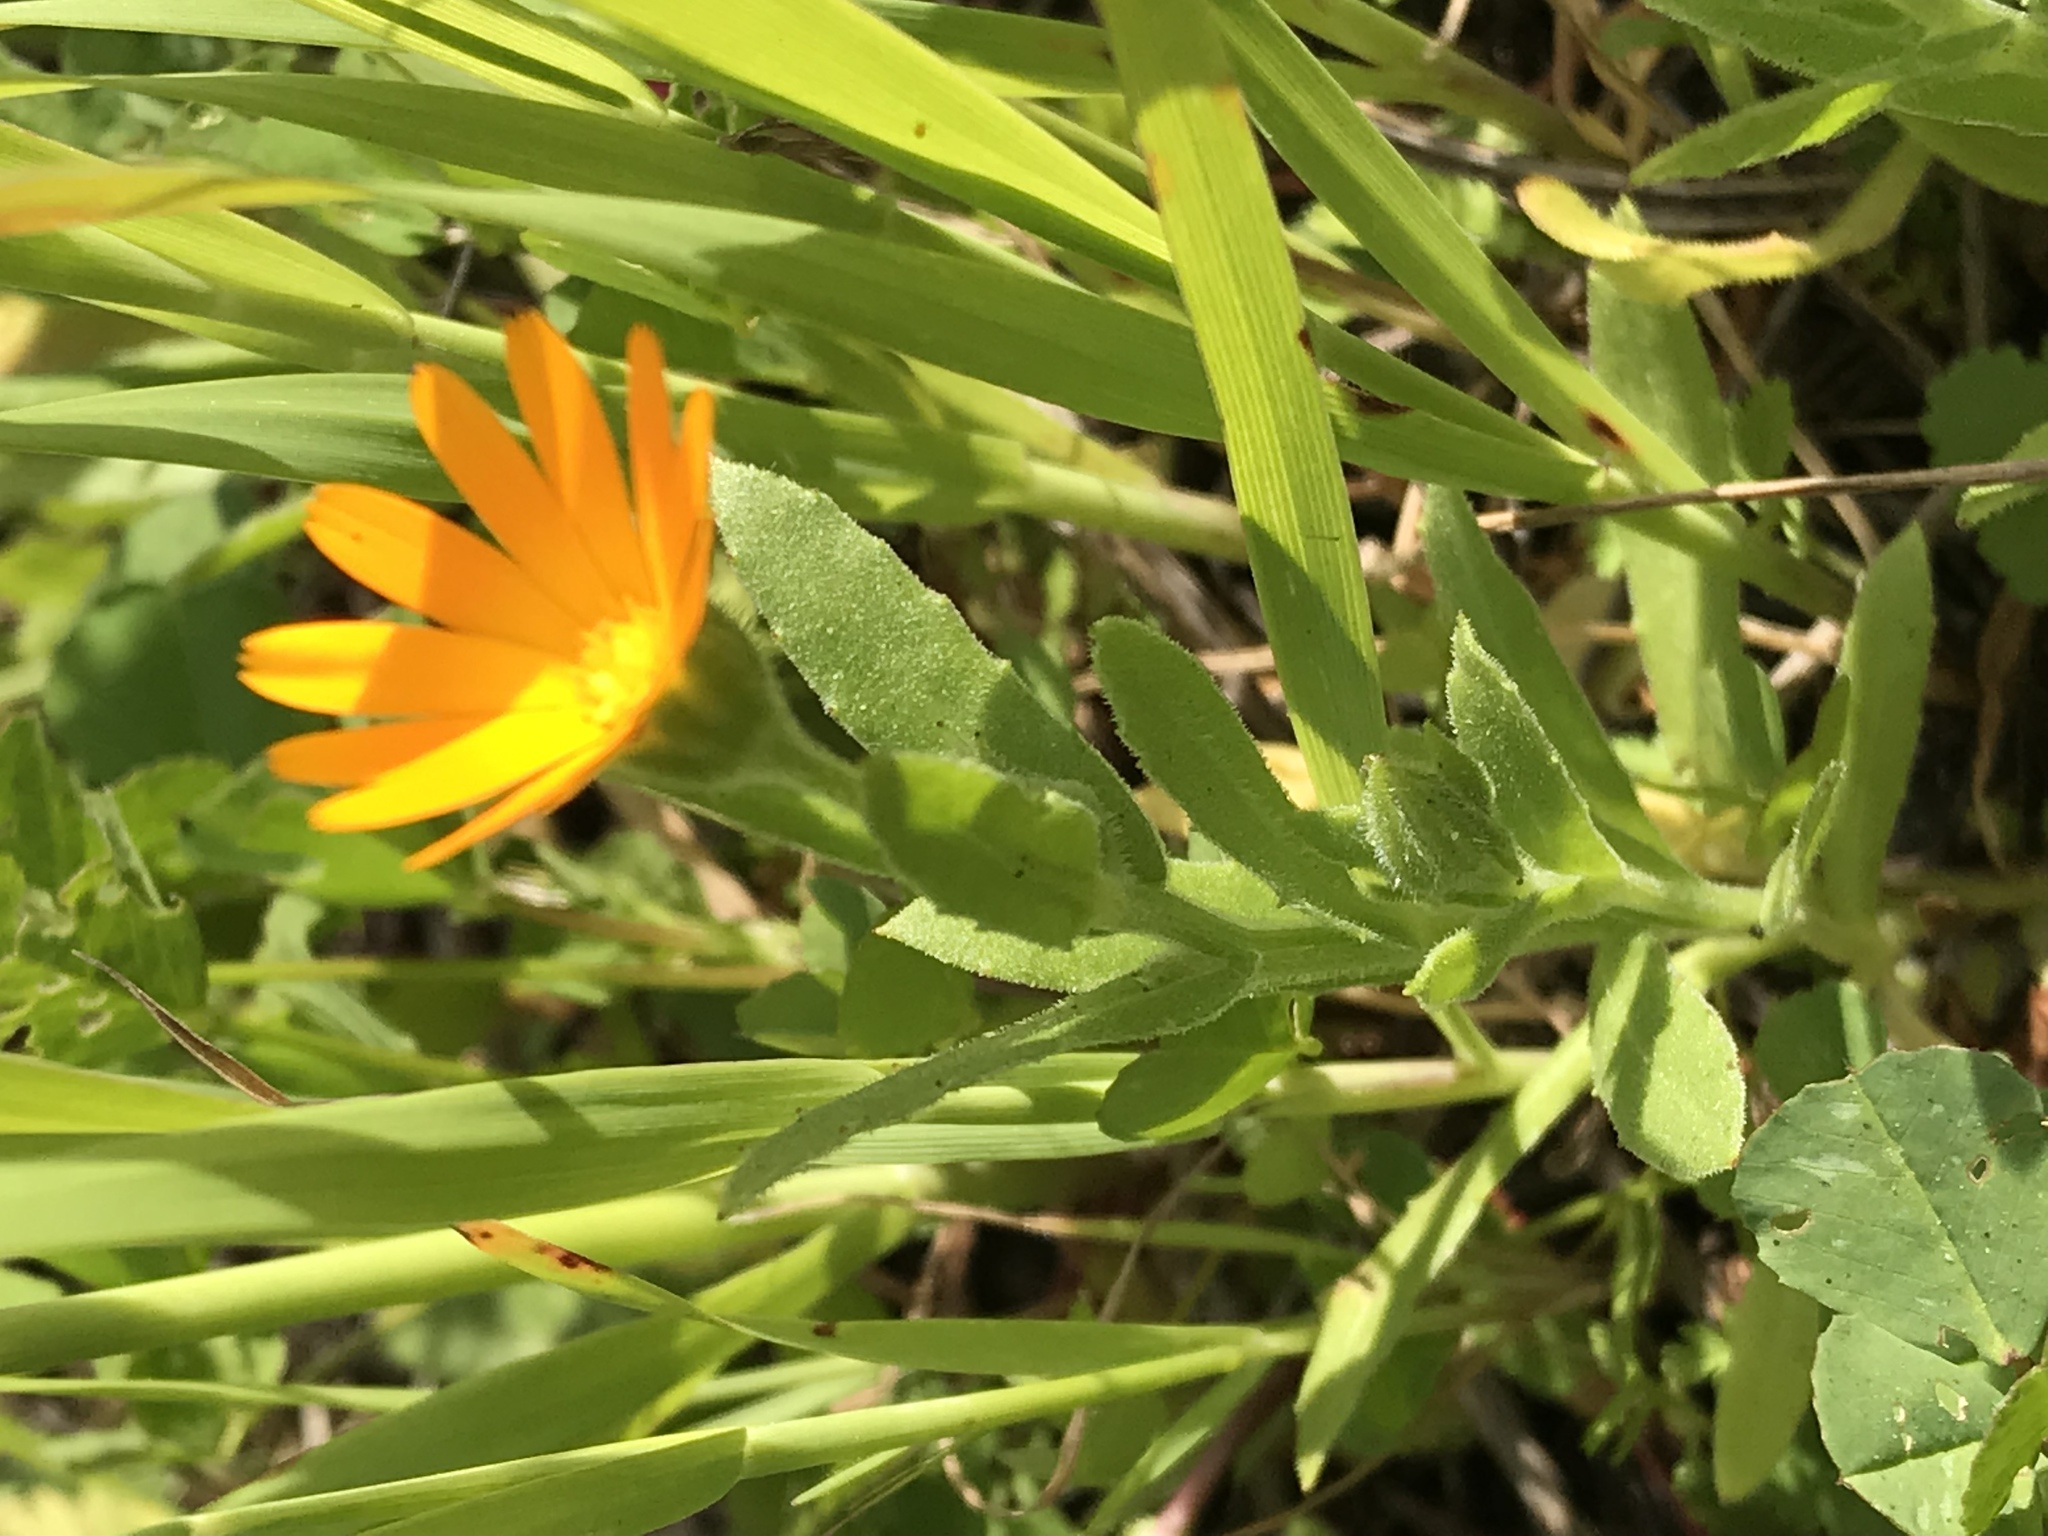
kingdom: Plantae
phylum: Tracheophyta
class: Magnoliopsida
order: Asterales
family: Asteraceae
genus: Calendula
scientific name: Calendula arvensis
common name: Field marigold
